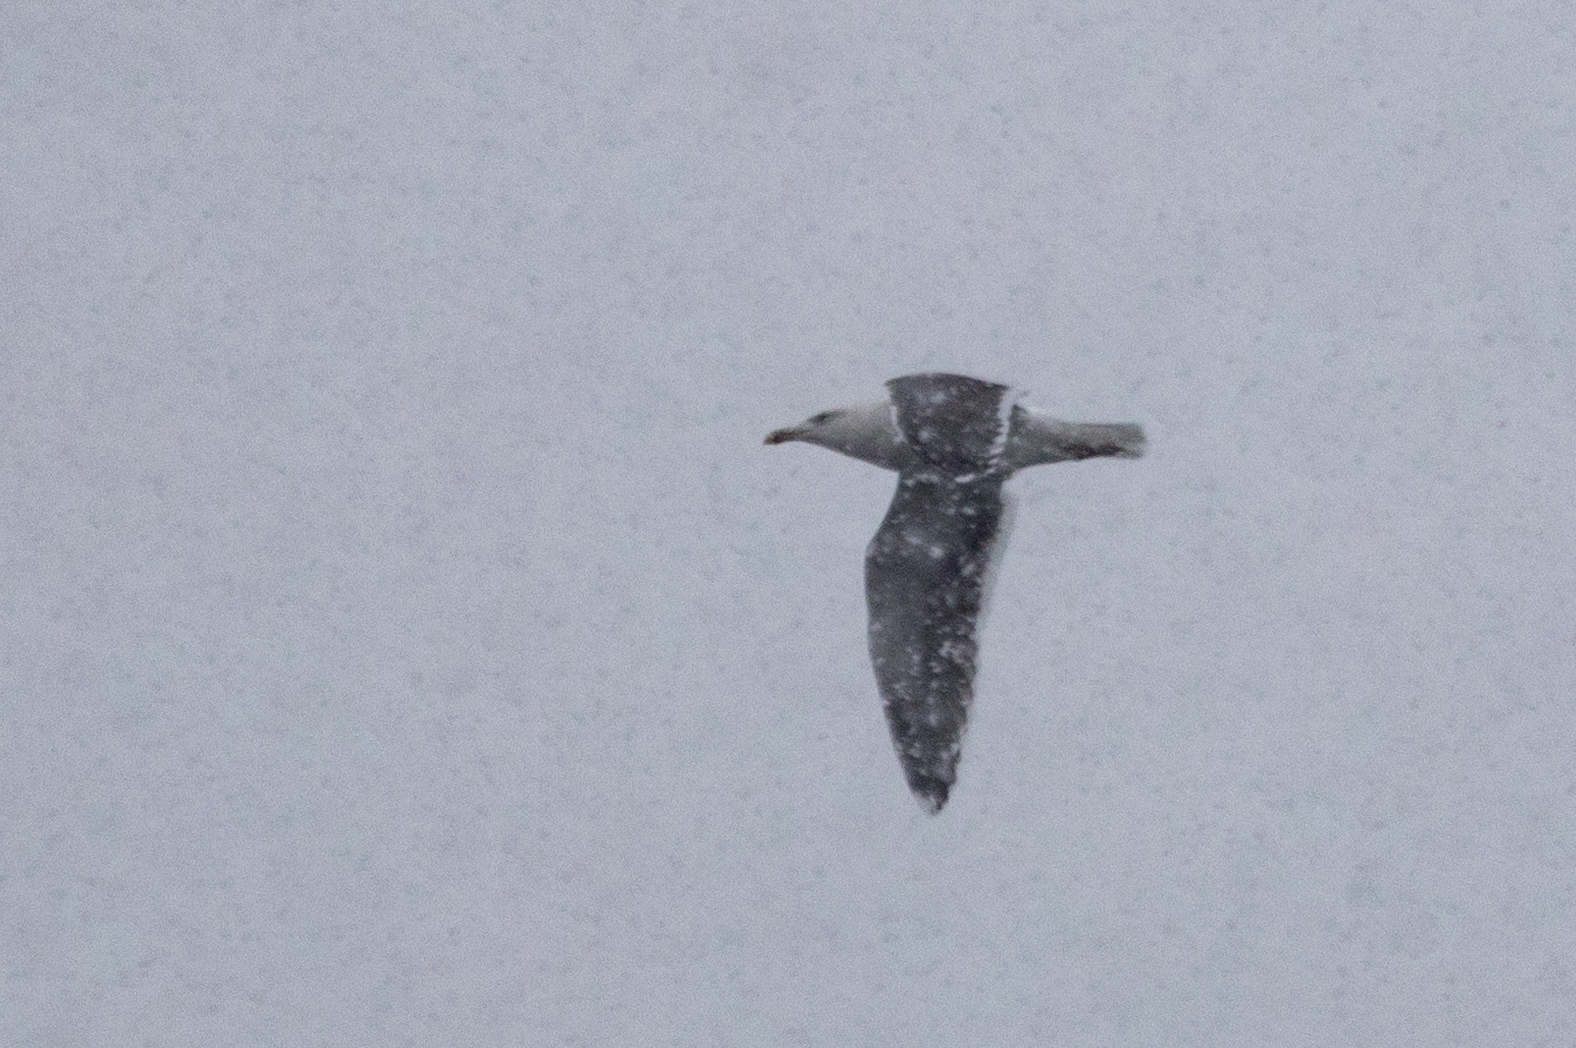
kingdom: Animalia
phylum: Chordata
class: Aves
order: Charadriiformes
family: Laridae
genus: Larus
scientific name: Larus marinus
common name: Great black-backed gull
